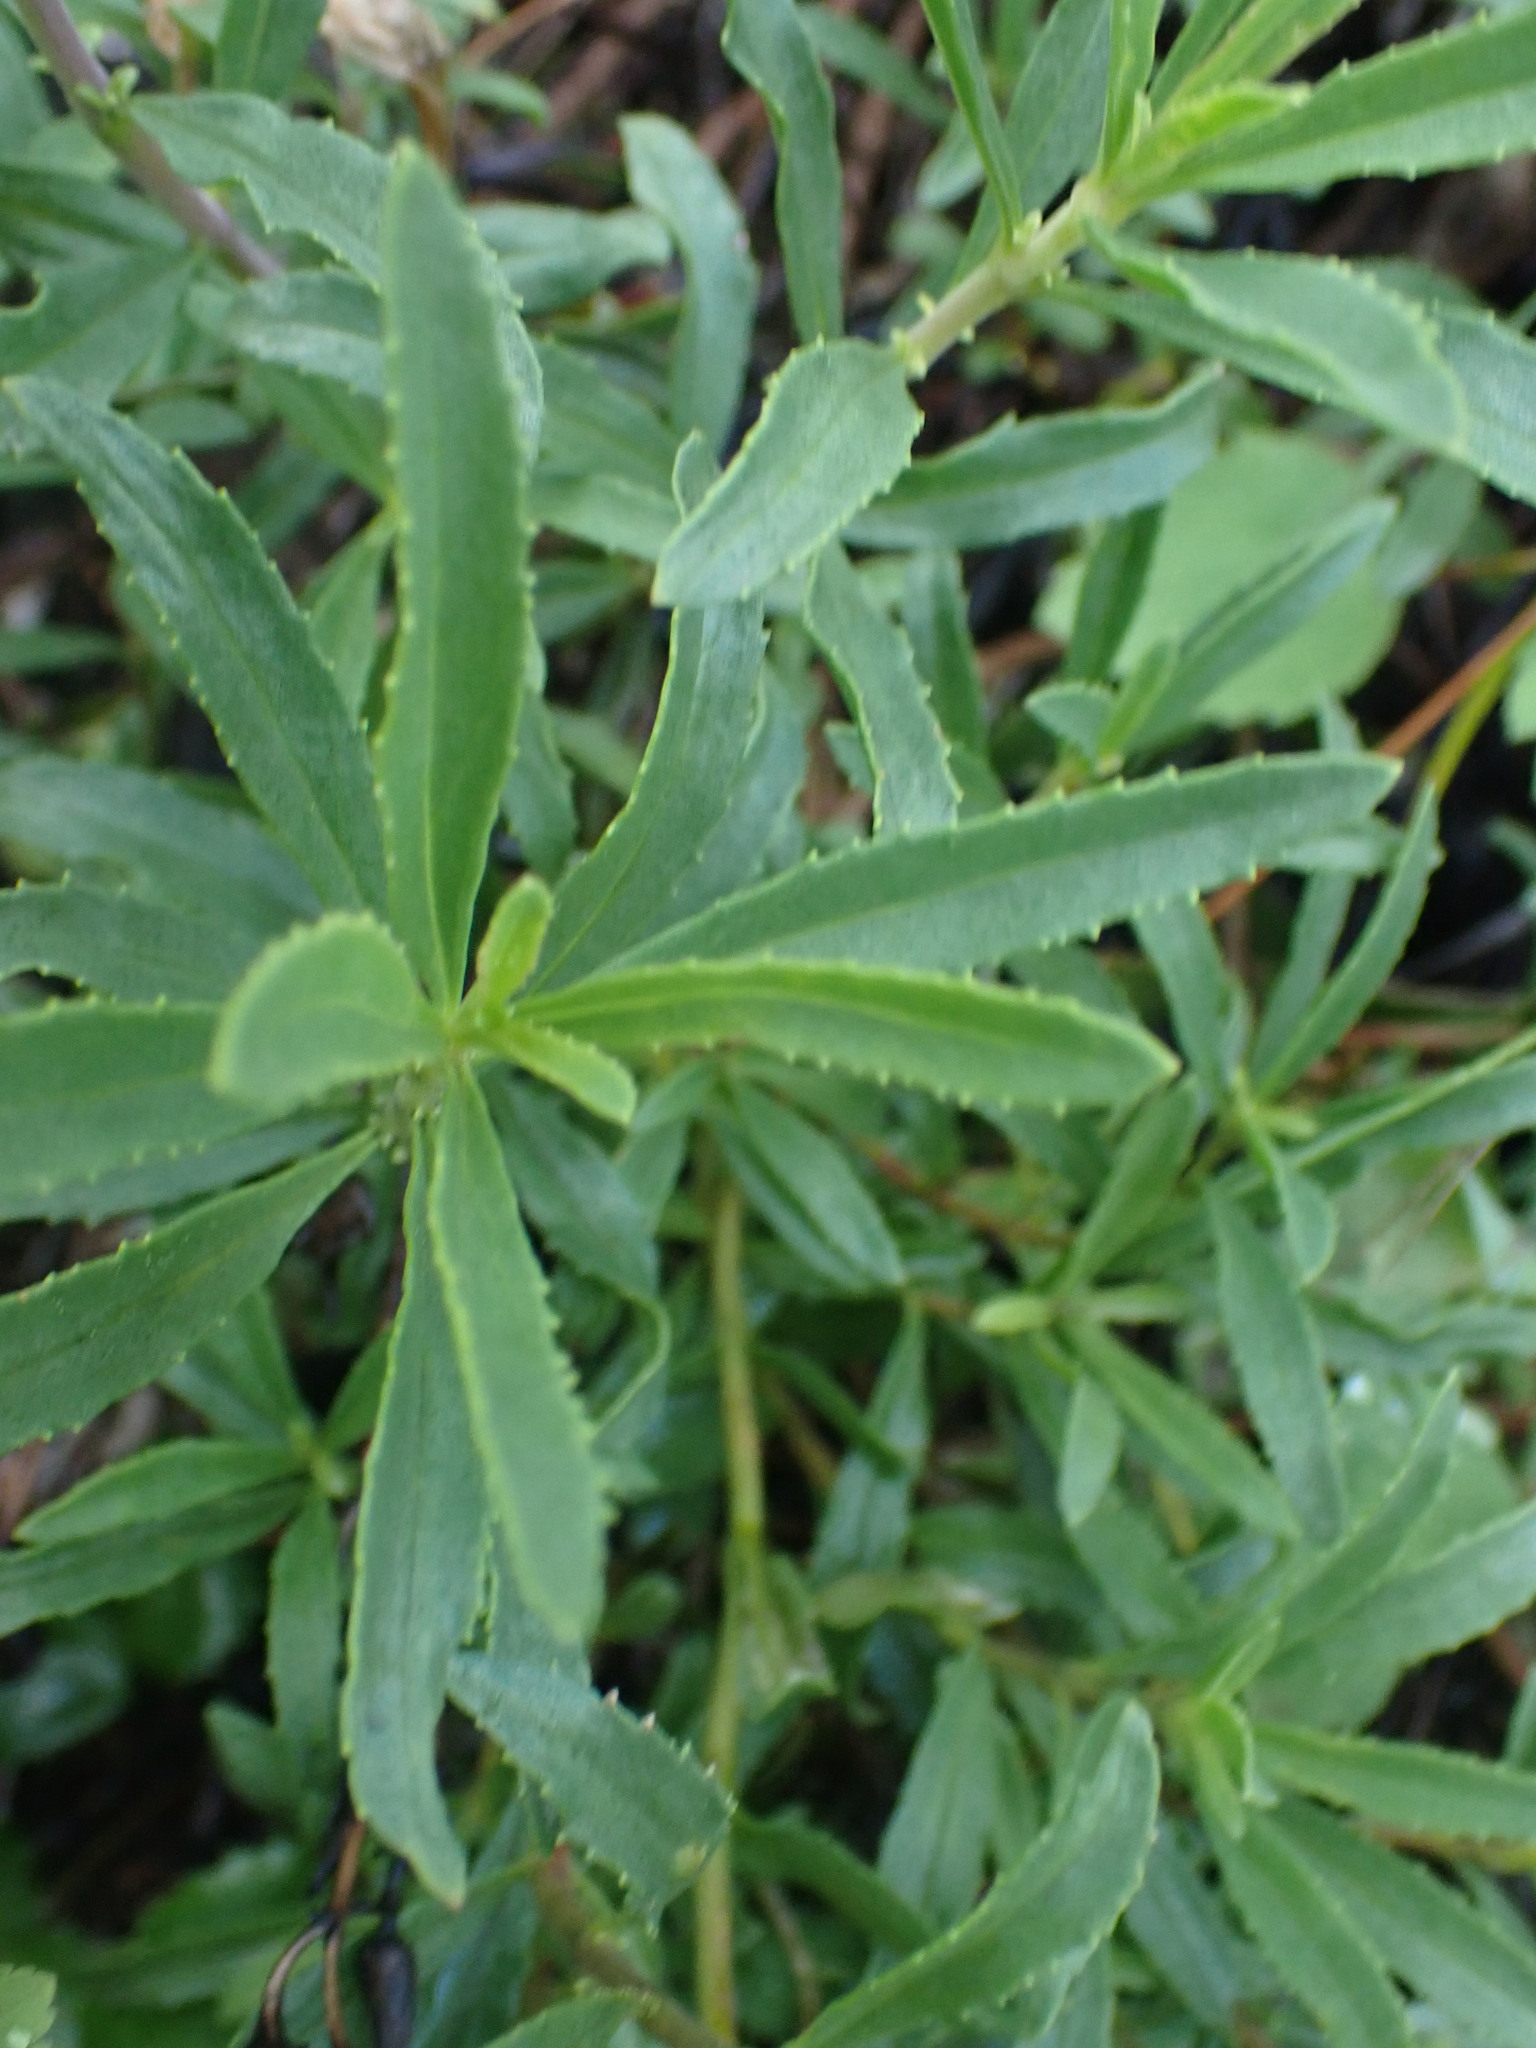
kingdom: Plantae
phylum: Tracheophyta
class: Magnoliopsida
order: Lamiales
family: Plantaginaceae
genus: Penstemon
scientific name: Penstemon fruticosus
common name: Bush penstemon
